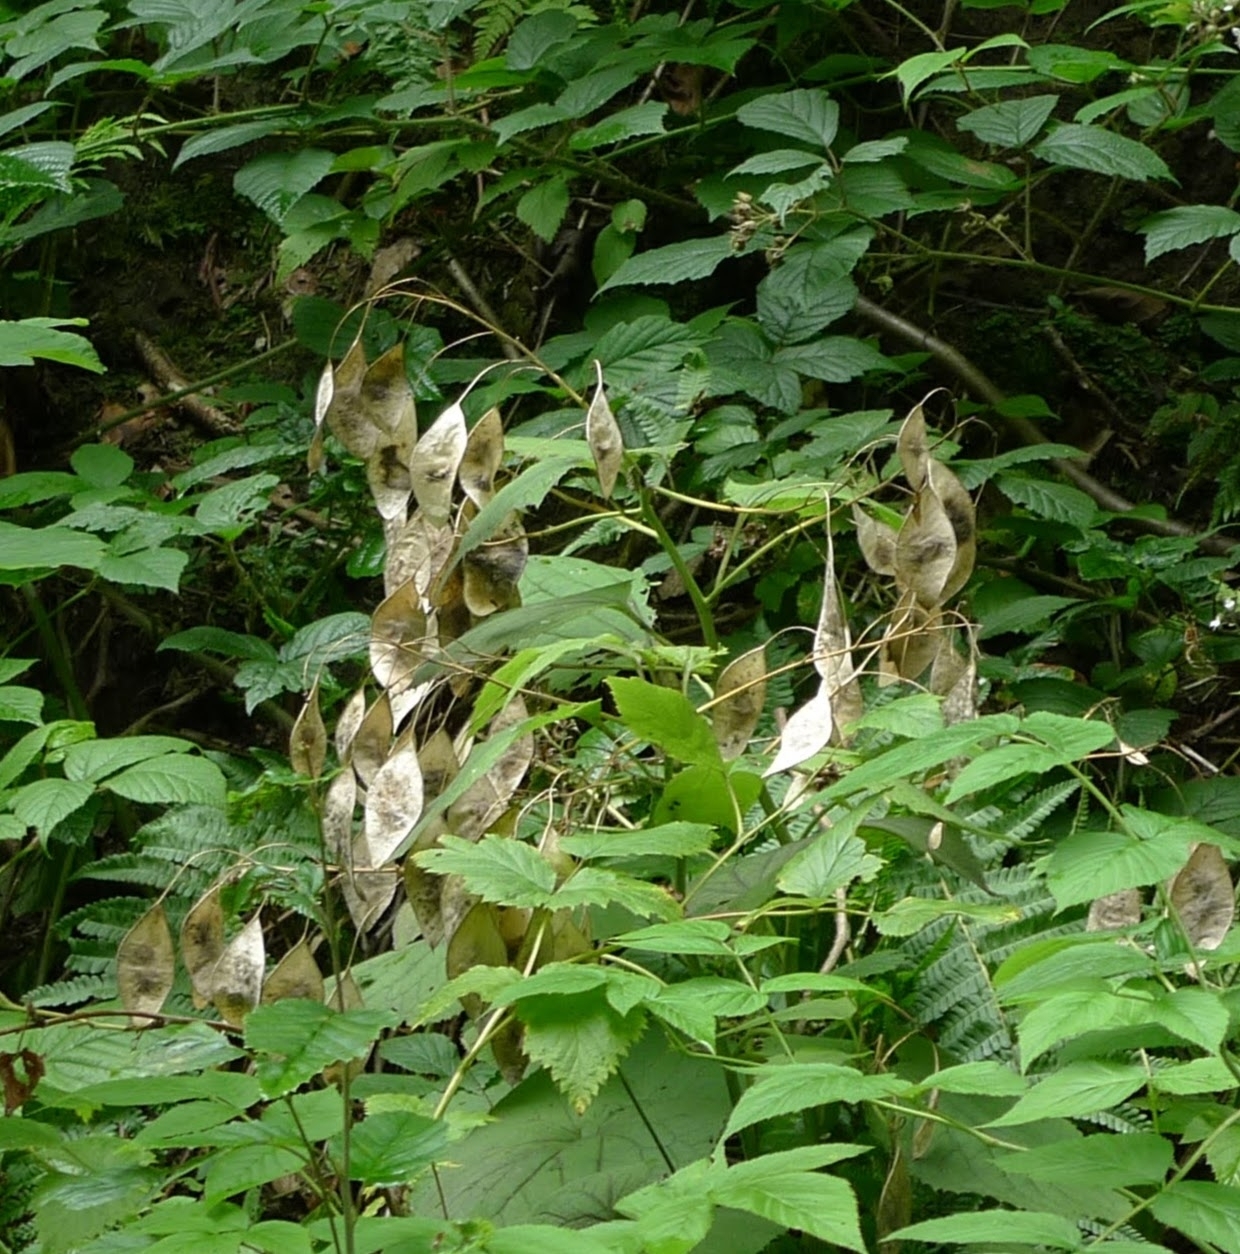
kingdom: Plantae
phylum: Tracheophyta
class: Magnoliopsida
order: Brassicales
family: Brassicaceae
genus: Lunaria
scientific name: Lunaria rediviva
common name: Perennial honesty
